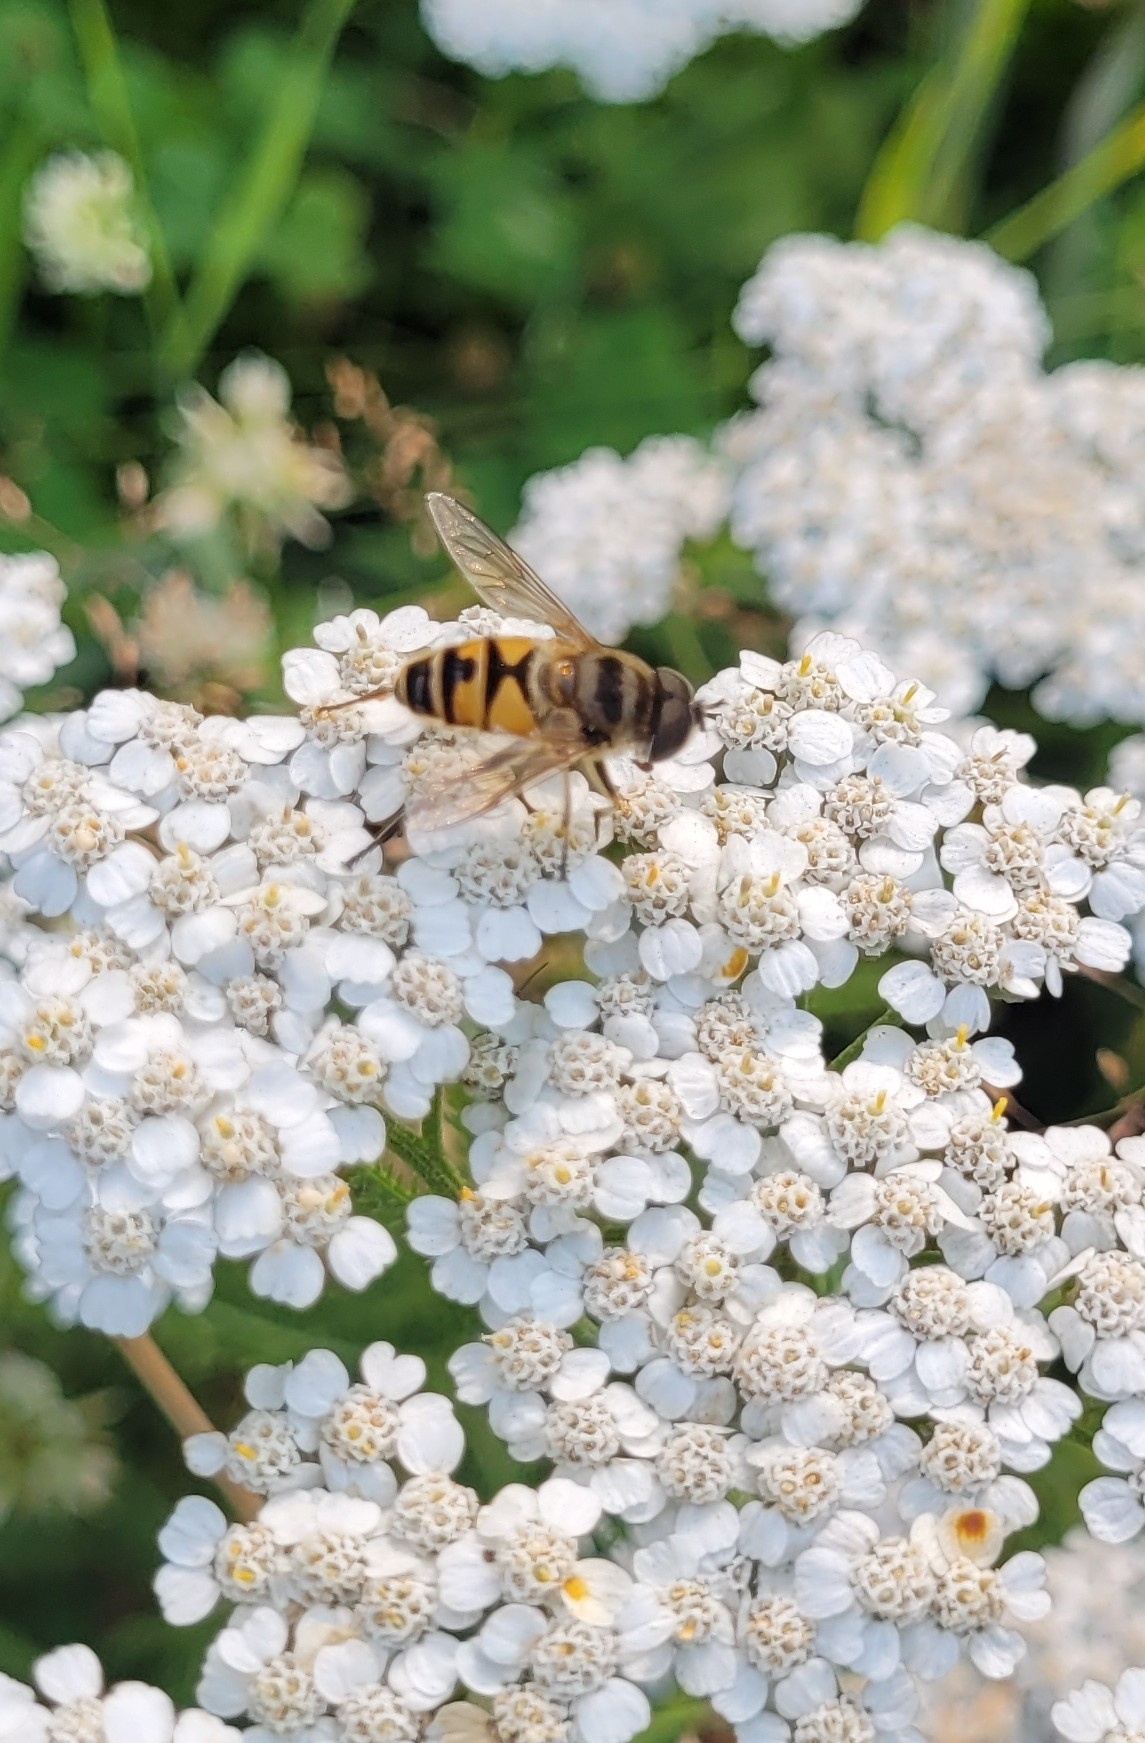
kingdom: Animalia
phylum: Arthropoda
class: Insecta
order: Diptera
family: Syrphidae
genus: Eristalis
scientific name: Eristalis cerealis
